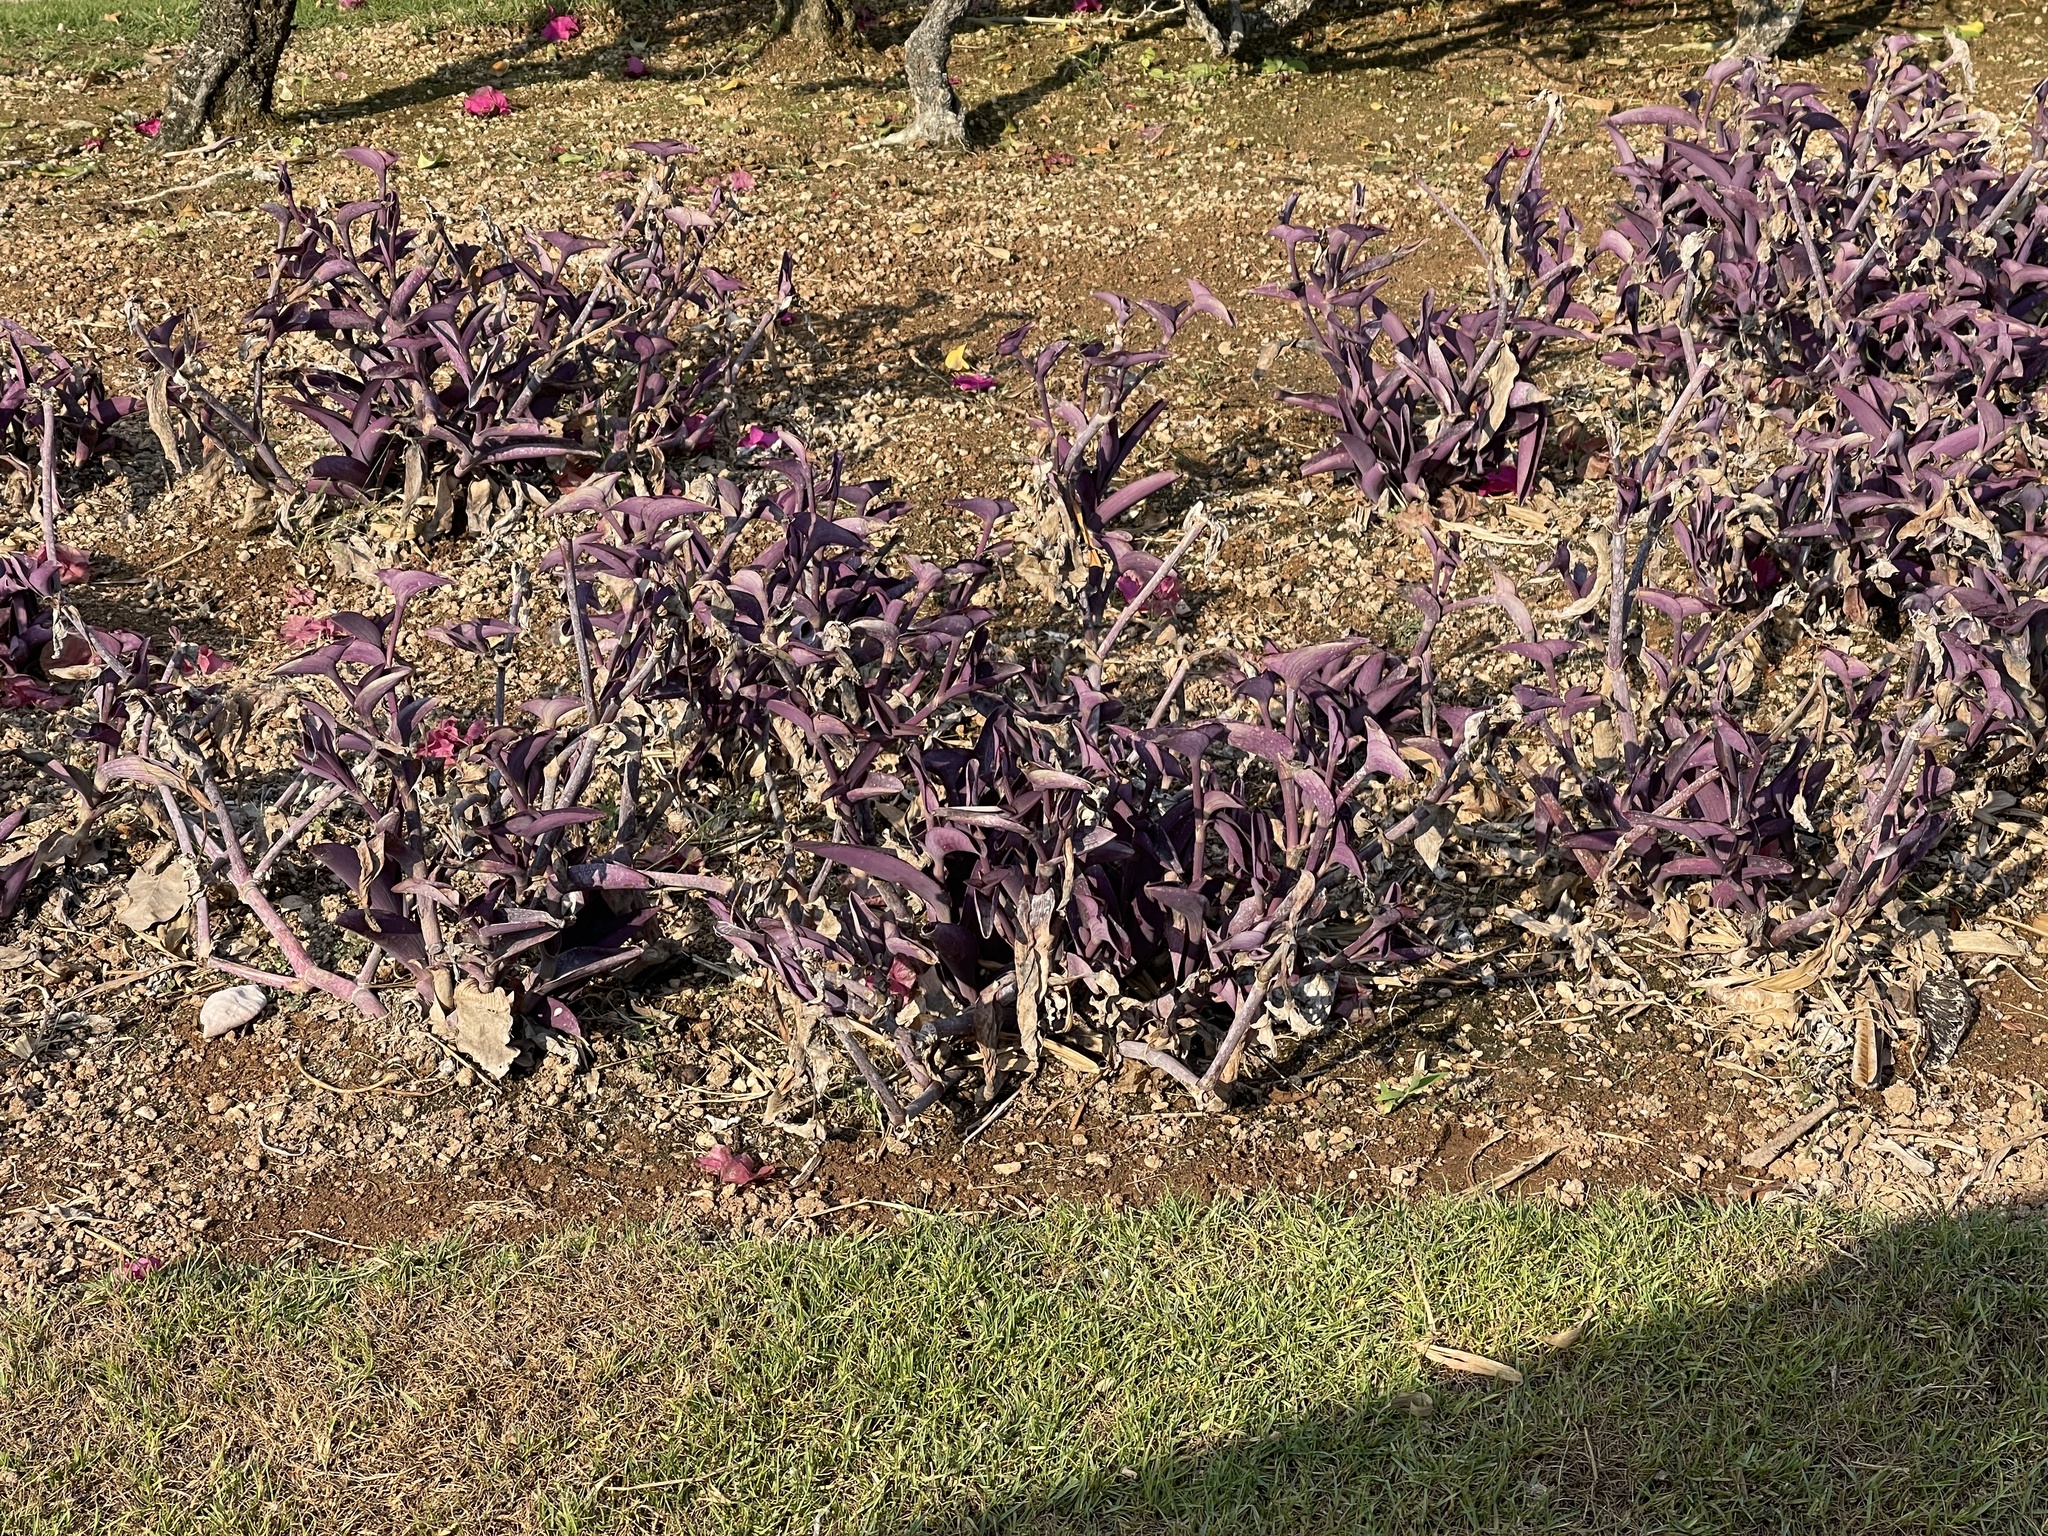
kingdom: Plantae
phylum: Tracheophyta
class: Liliopsida
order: Commelinales
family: Commelinaceae
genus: Tradescantia
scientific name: Tradescantia pallida
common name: Purpleheart
